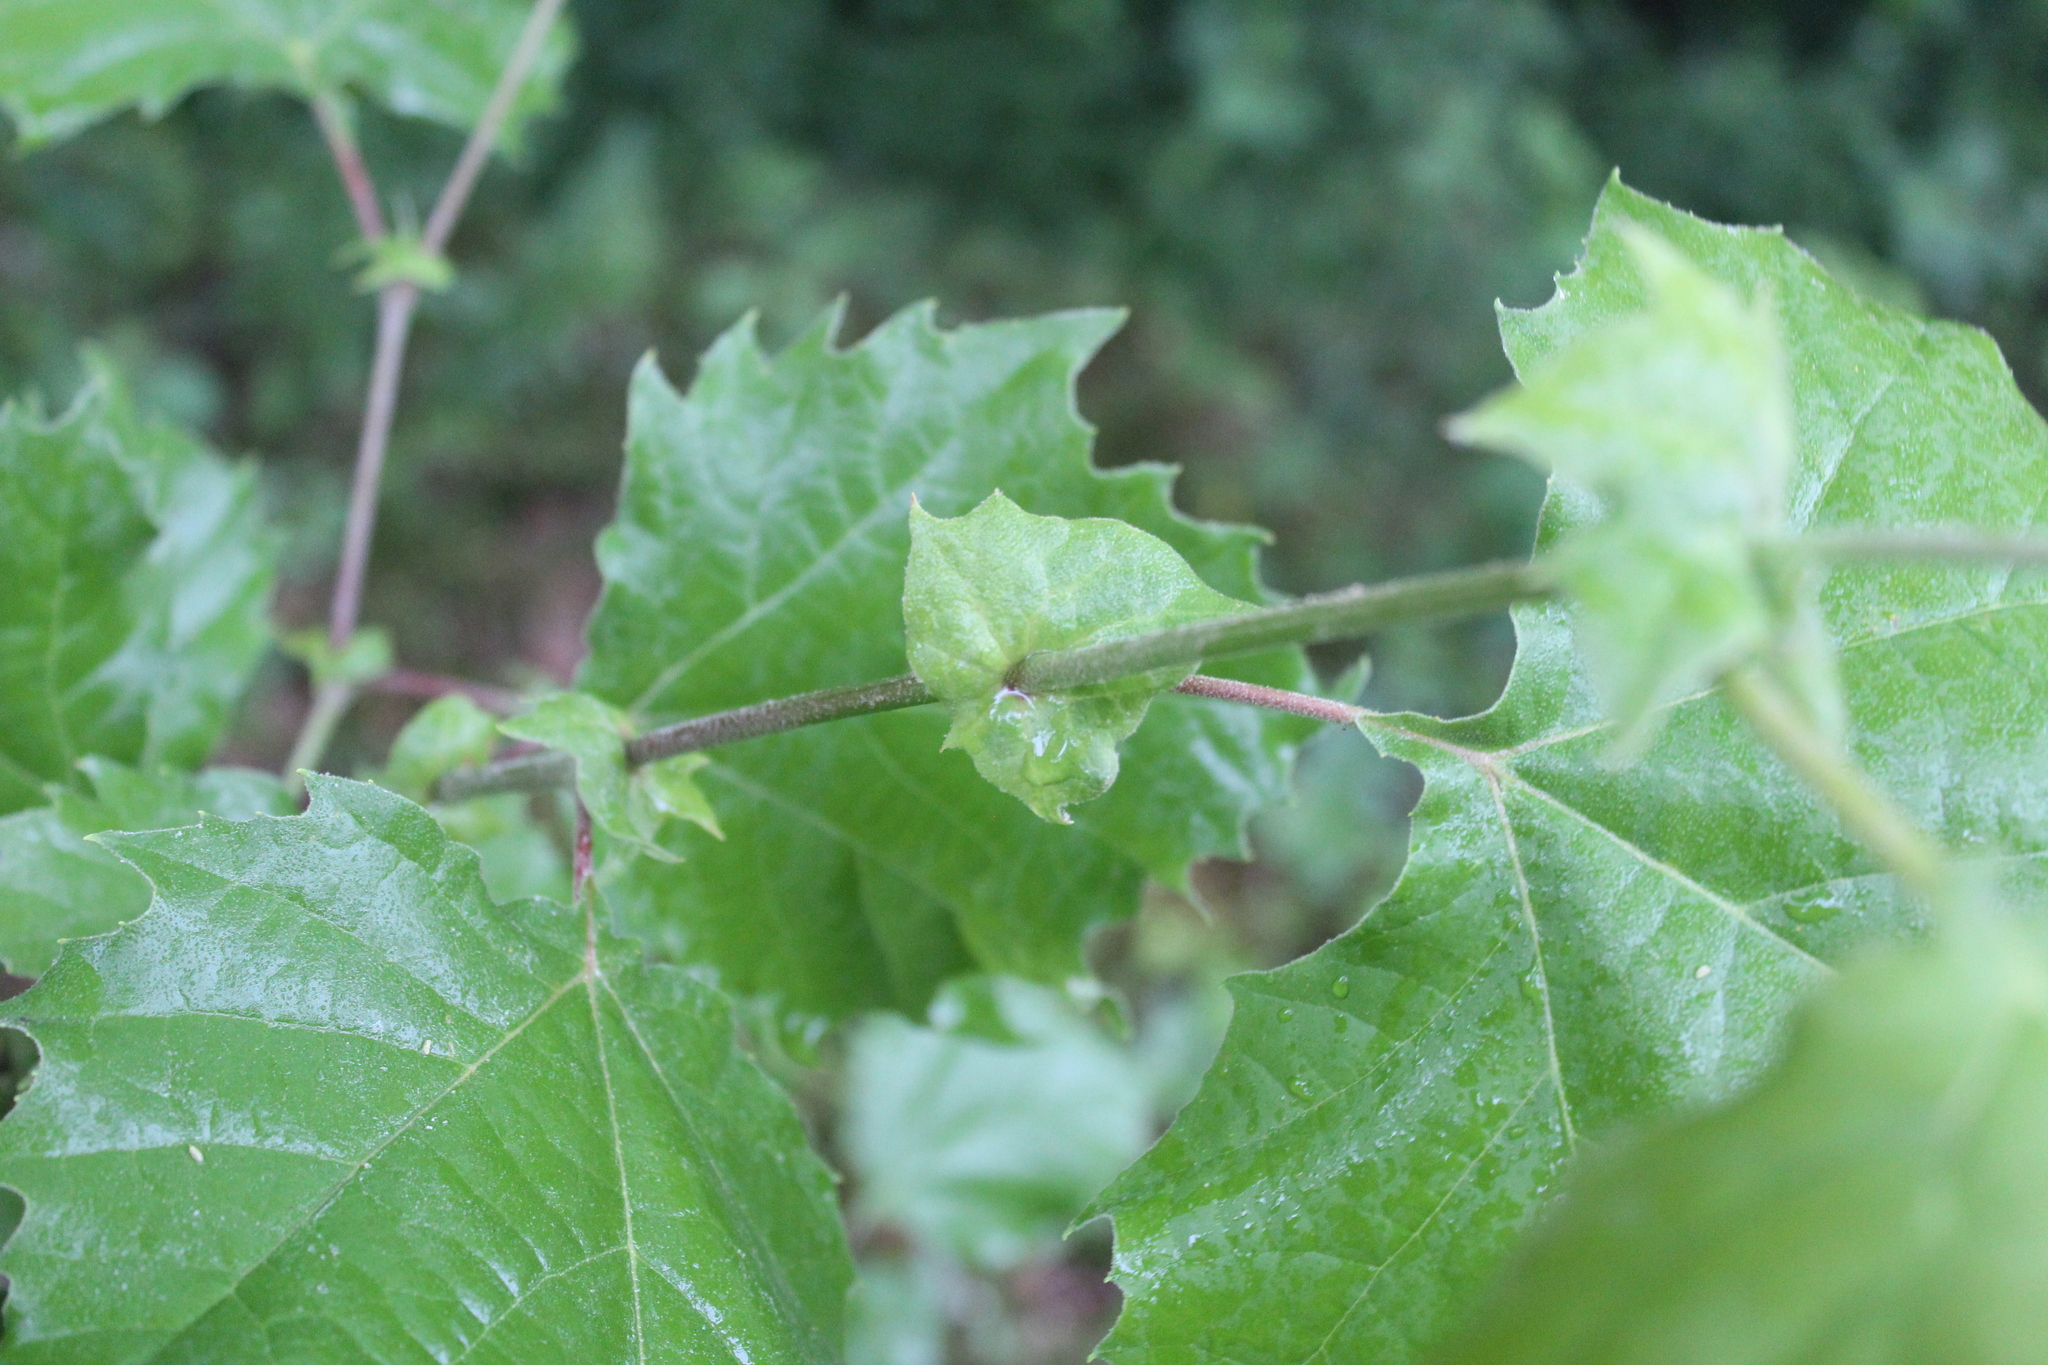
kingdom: Plantae
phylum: Tracheophyta
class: Magnoliopsida
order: Proteales
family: Platanaceae
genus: Platanus
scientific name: Platanus occidentalis
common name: American sycamore
